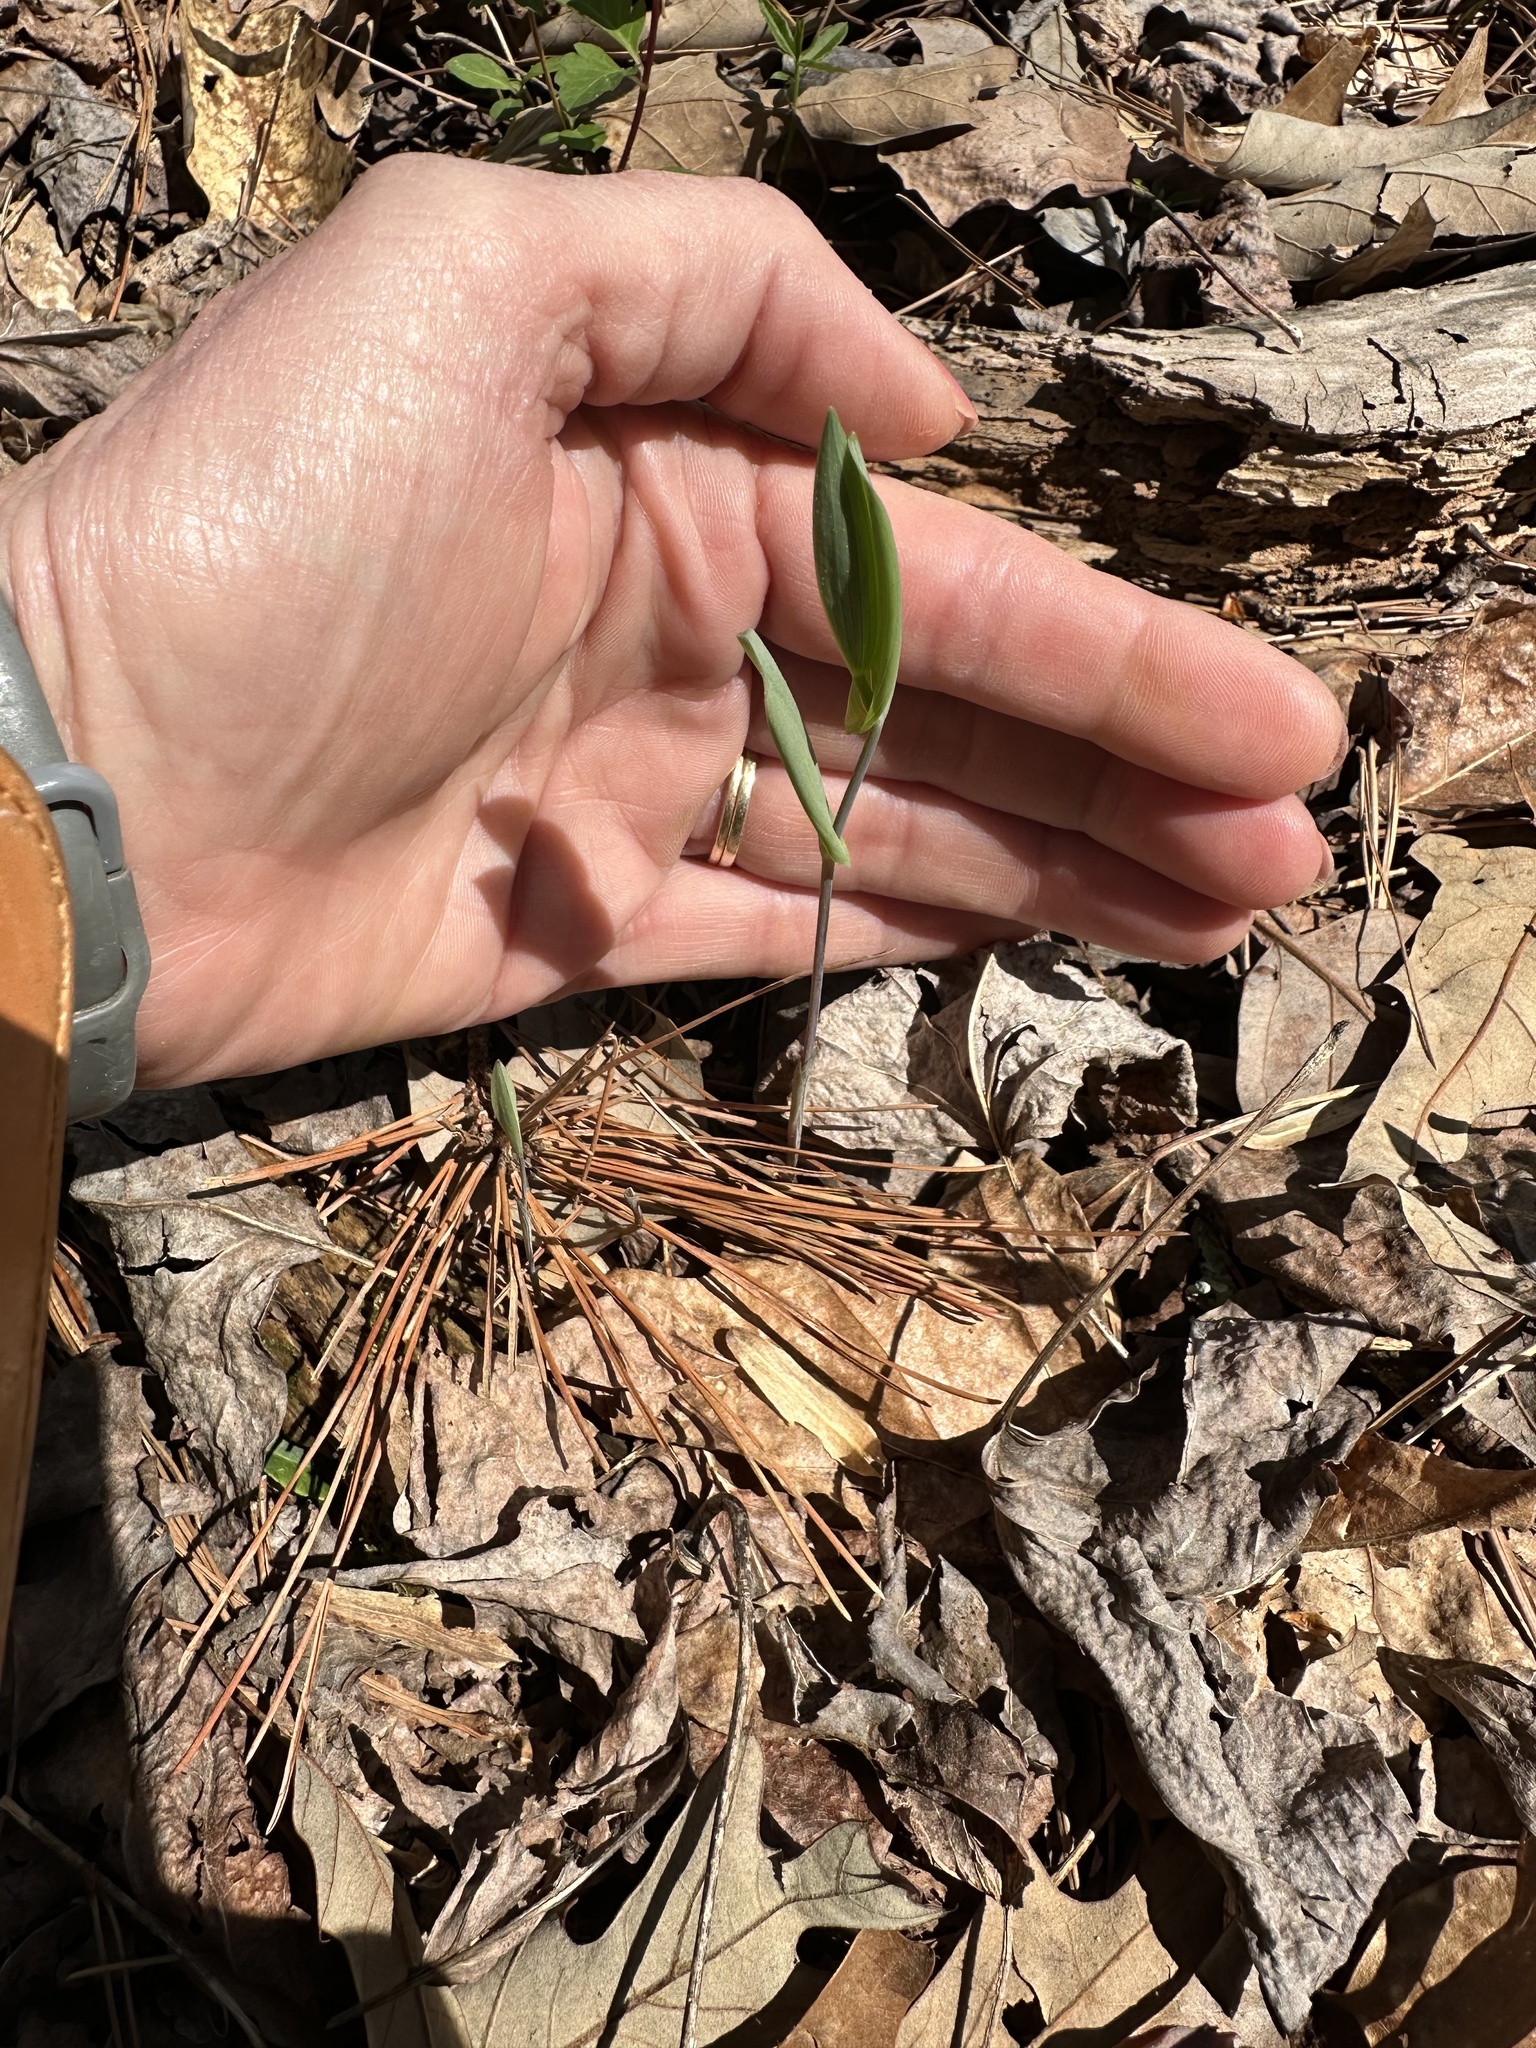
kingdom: Plantae
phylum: Tracheophyta
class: Liliopsida
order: Liliales
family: Colchicaceae
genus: Uvularia
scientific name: Uvularia perfoliata
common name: Perfoliate bellwort
